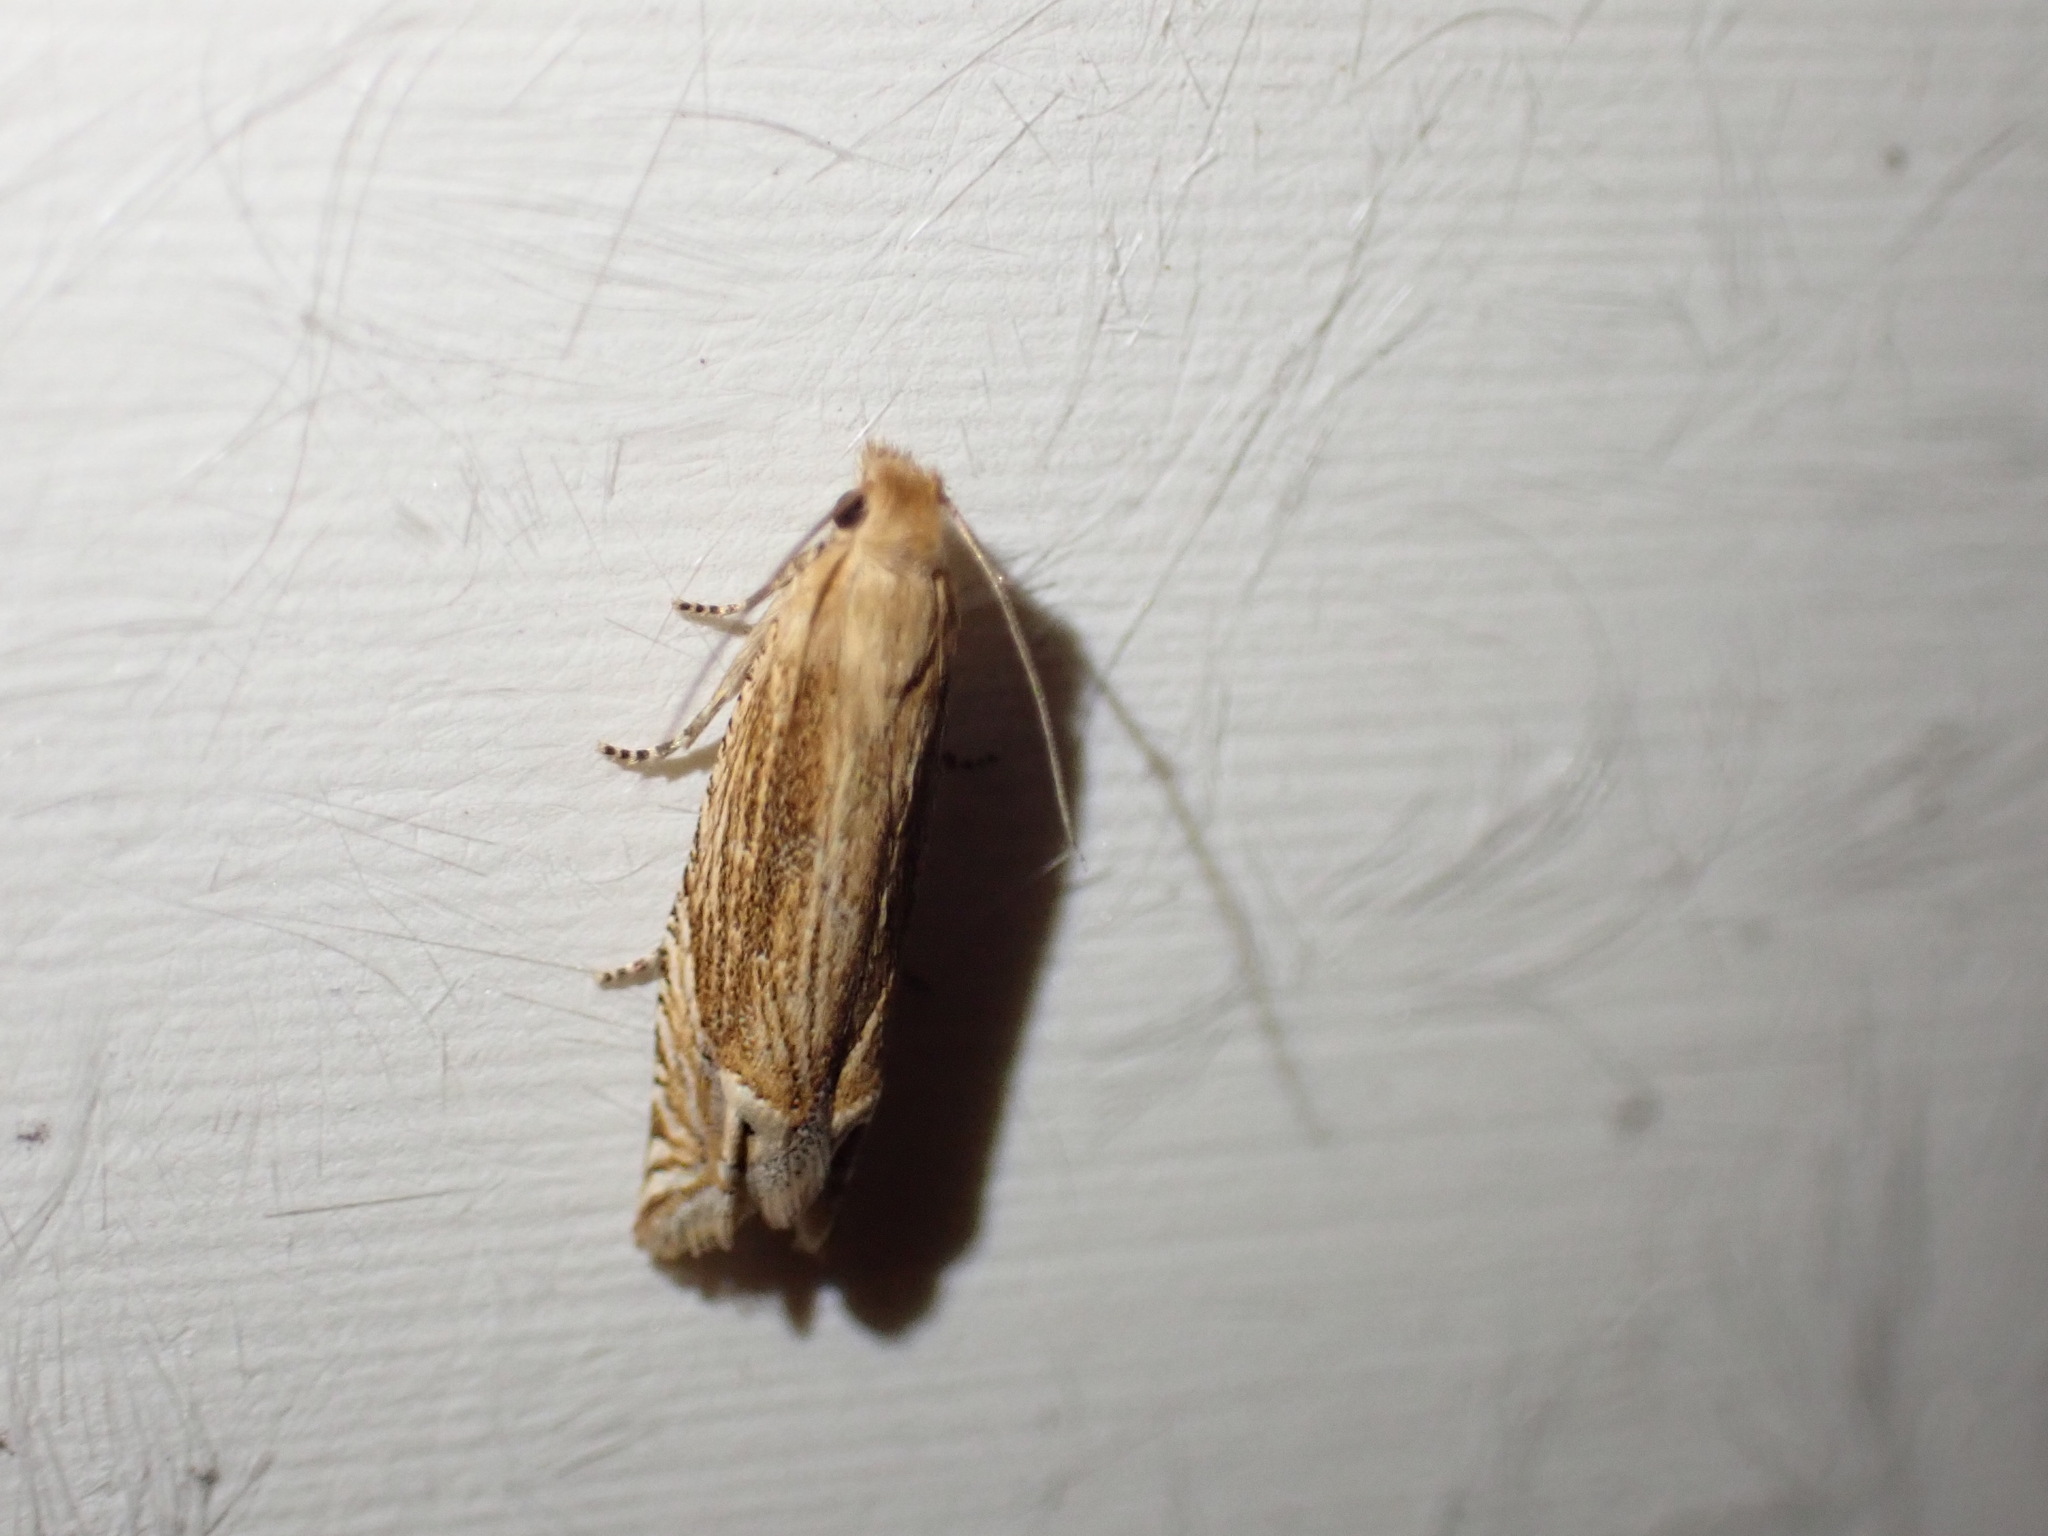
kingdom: Animalia
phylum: Arthropoda
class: Insecta
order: Lepidoptera
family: Tortricidae
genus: Pelochrista
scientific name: Pelochrista cataclystiana
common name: Goldenrod pelochrista moth
